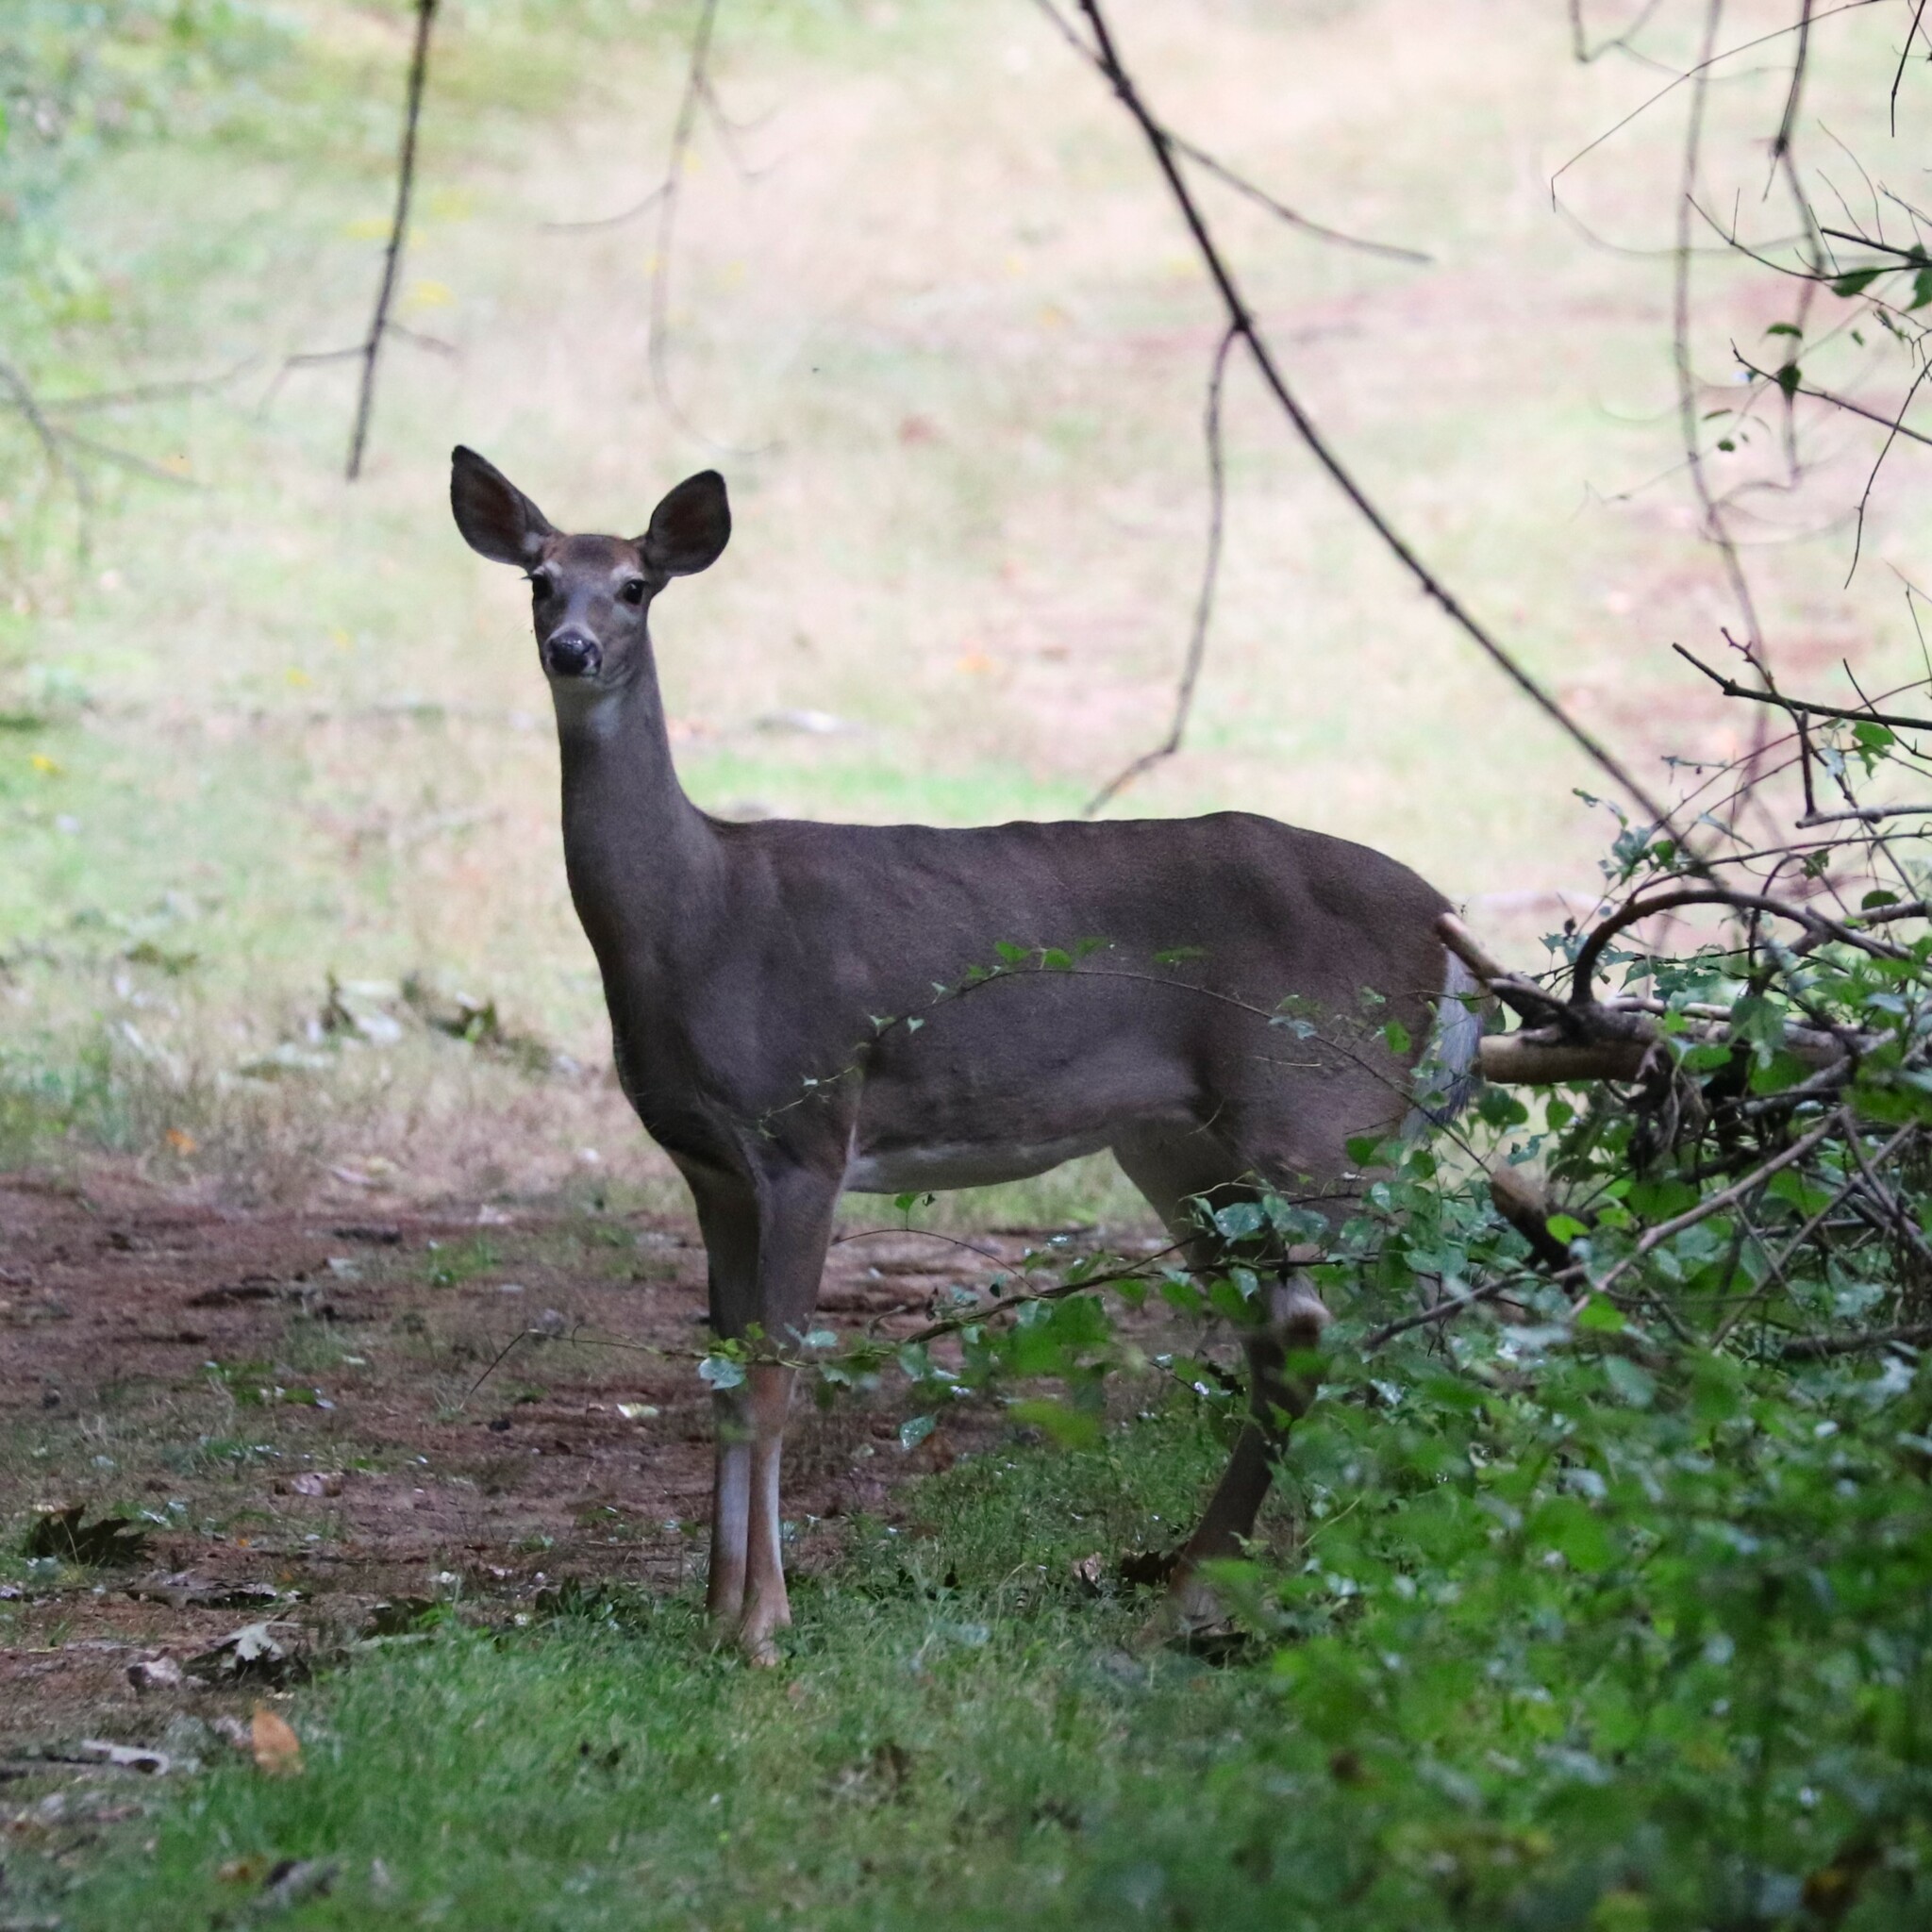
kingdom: Animalia
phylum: Chordata
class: Mammalia
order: Artiodactyla
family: Cervidae
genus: Odocoileus
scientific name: Odocoileus virginianus
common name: White-tailed deer
